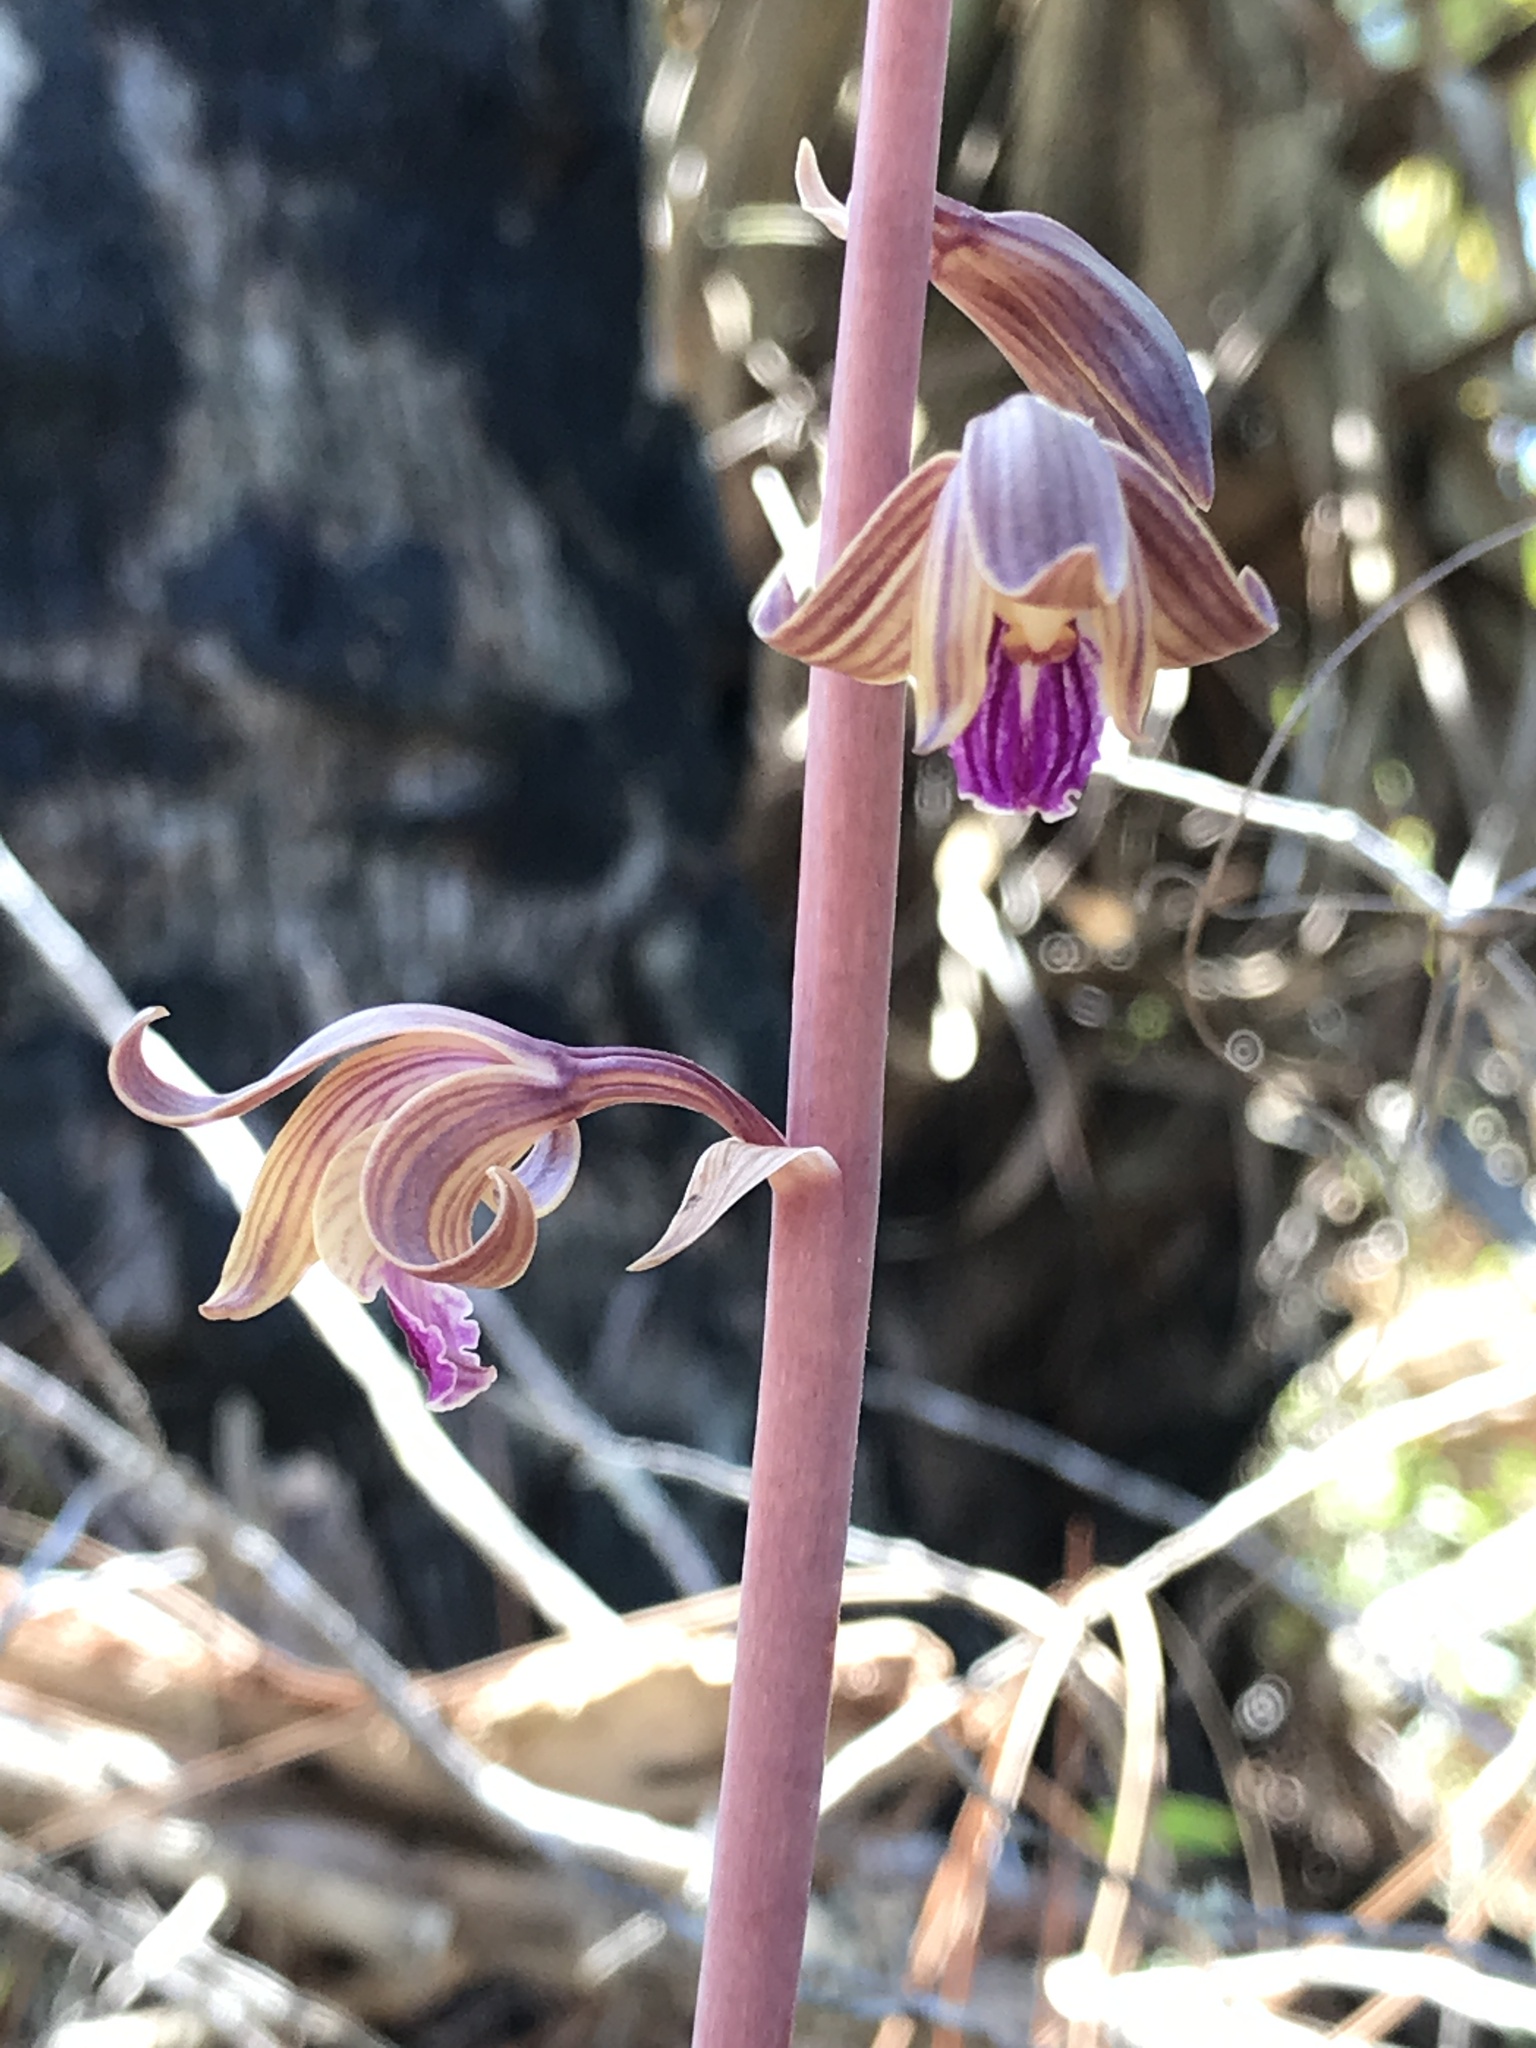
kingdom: Plantae
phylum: Tracheophyta
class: Liliopsida
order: Asparagales
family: Orchidaceae
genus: Bletia
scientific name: Bletia spicata
